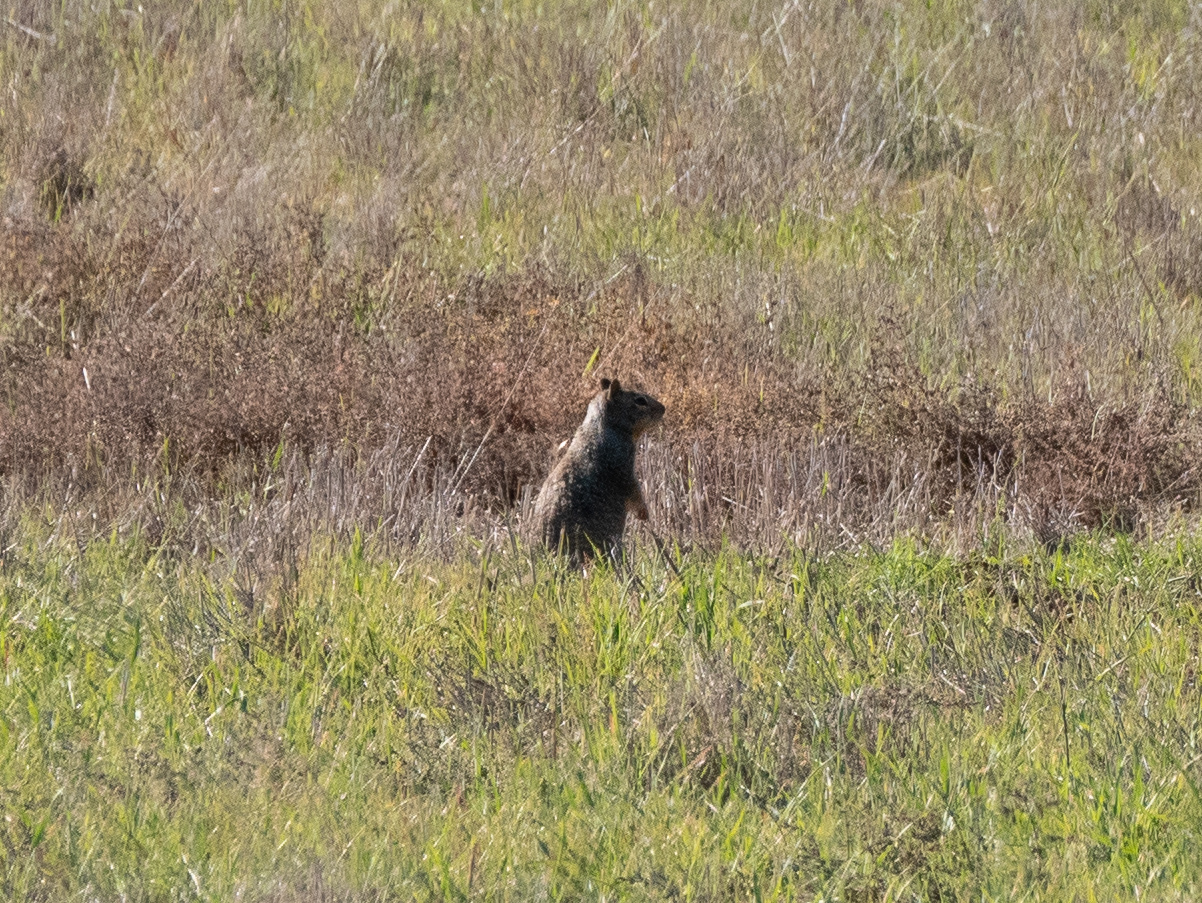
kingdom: Animalia
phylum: Chordata
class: Mammalia
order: Rodentia
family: Sciuridae
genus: Otospermophilus
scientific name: Otospermophilus beecheyi
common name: California ground squirrel
